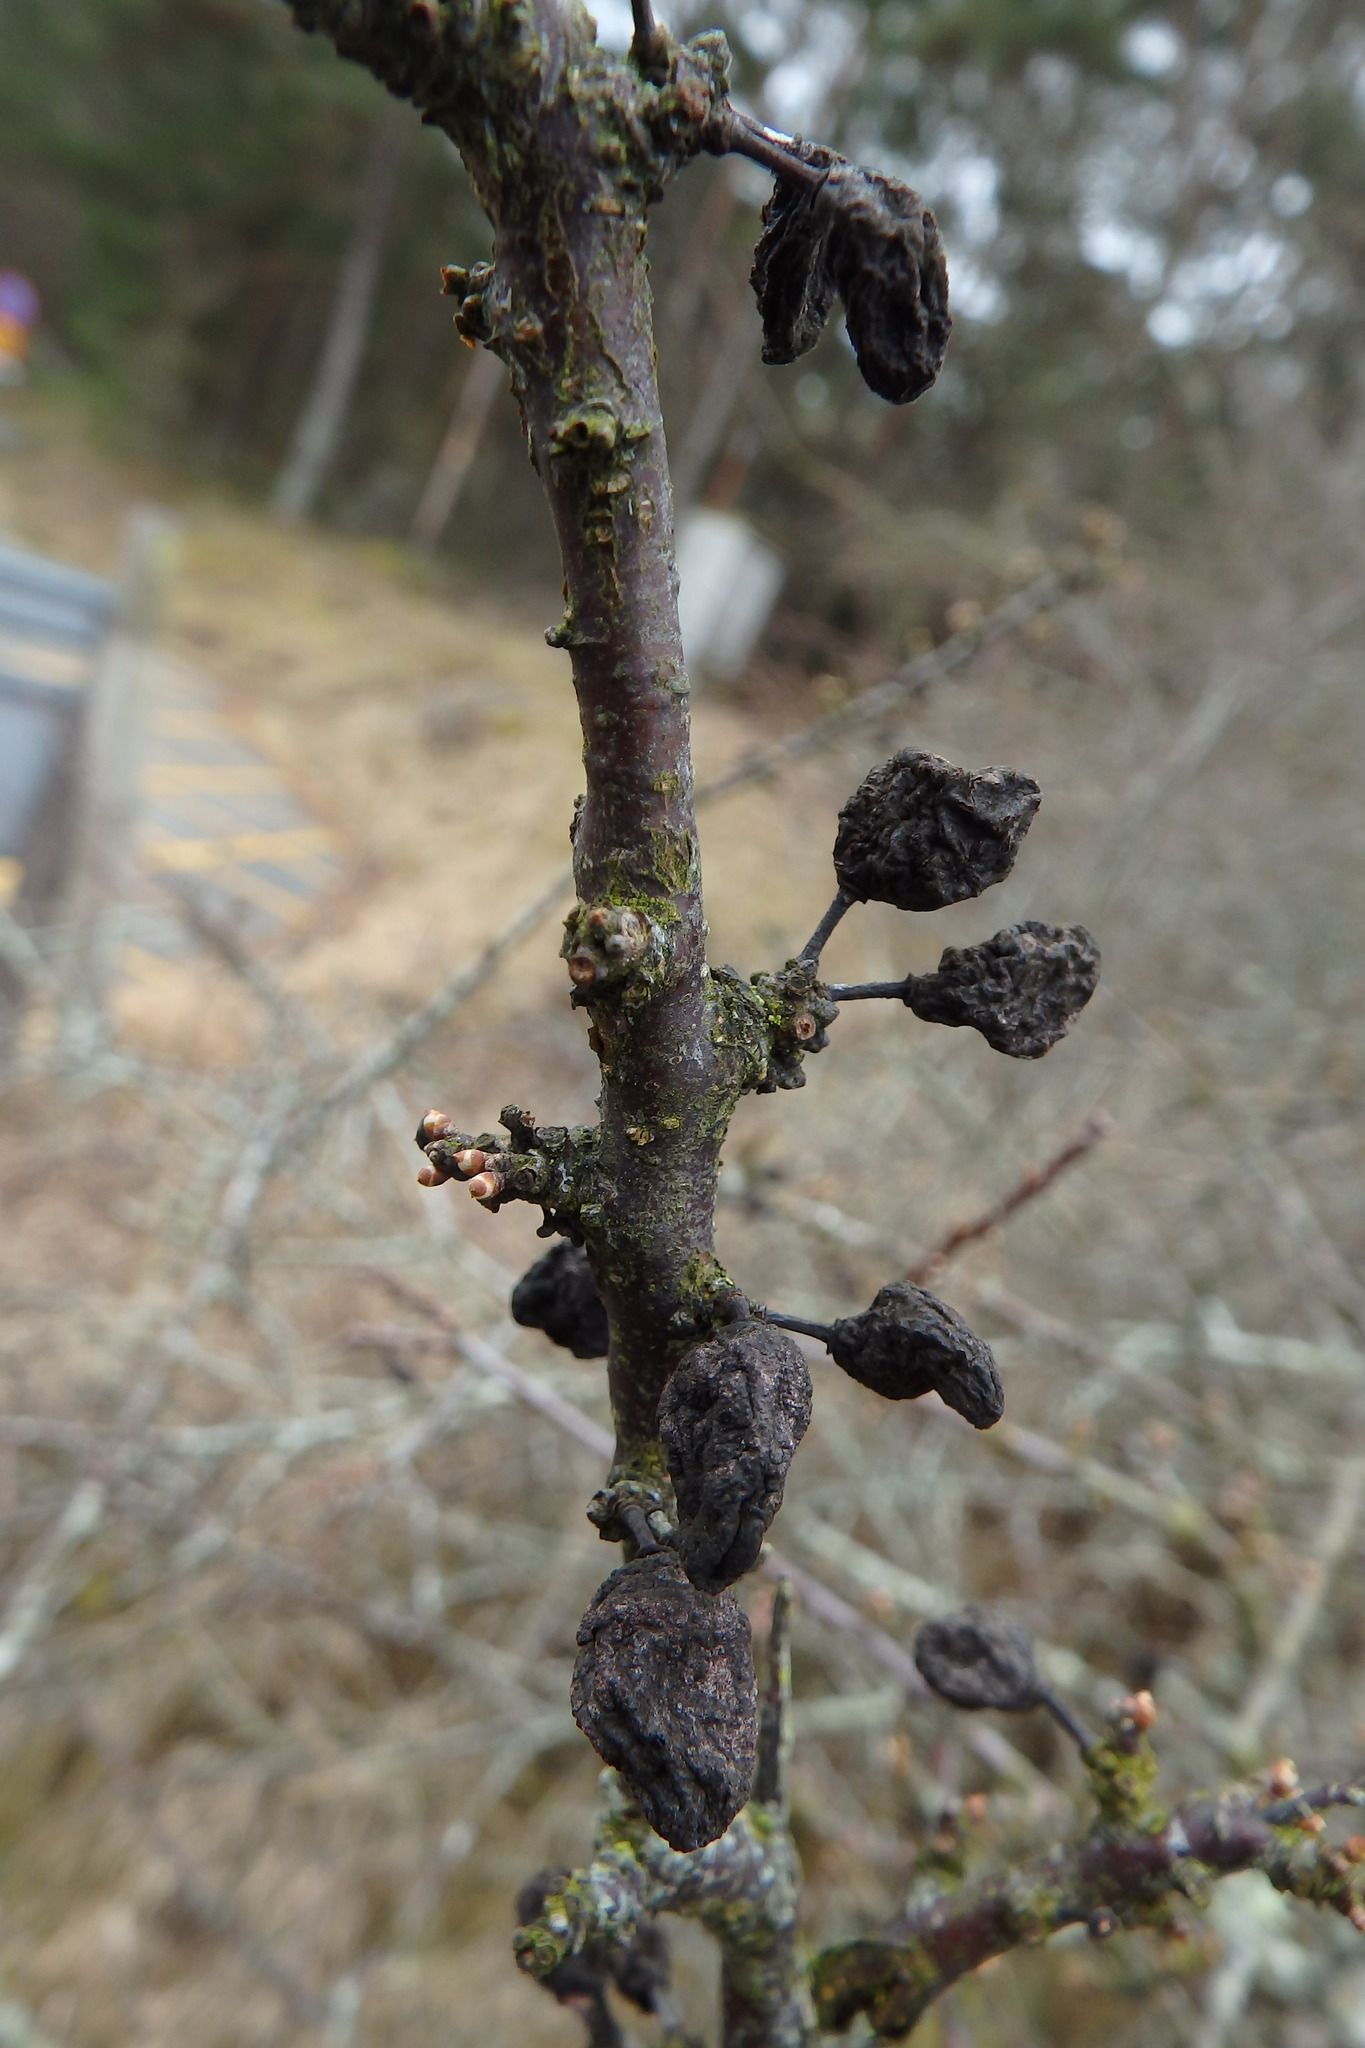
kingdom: Plantae
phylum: Tracheophyta
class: Magnoliopsida
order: Rosales
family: Rosaceae
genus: Prunus
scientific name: Prunus spinosa
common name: Blackthorn
